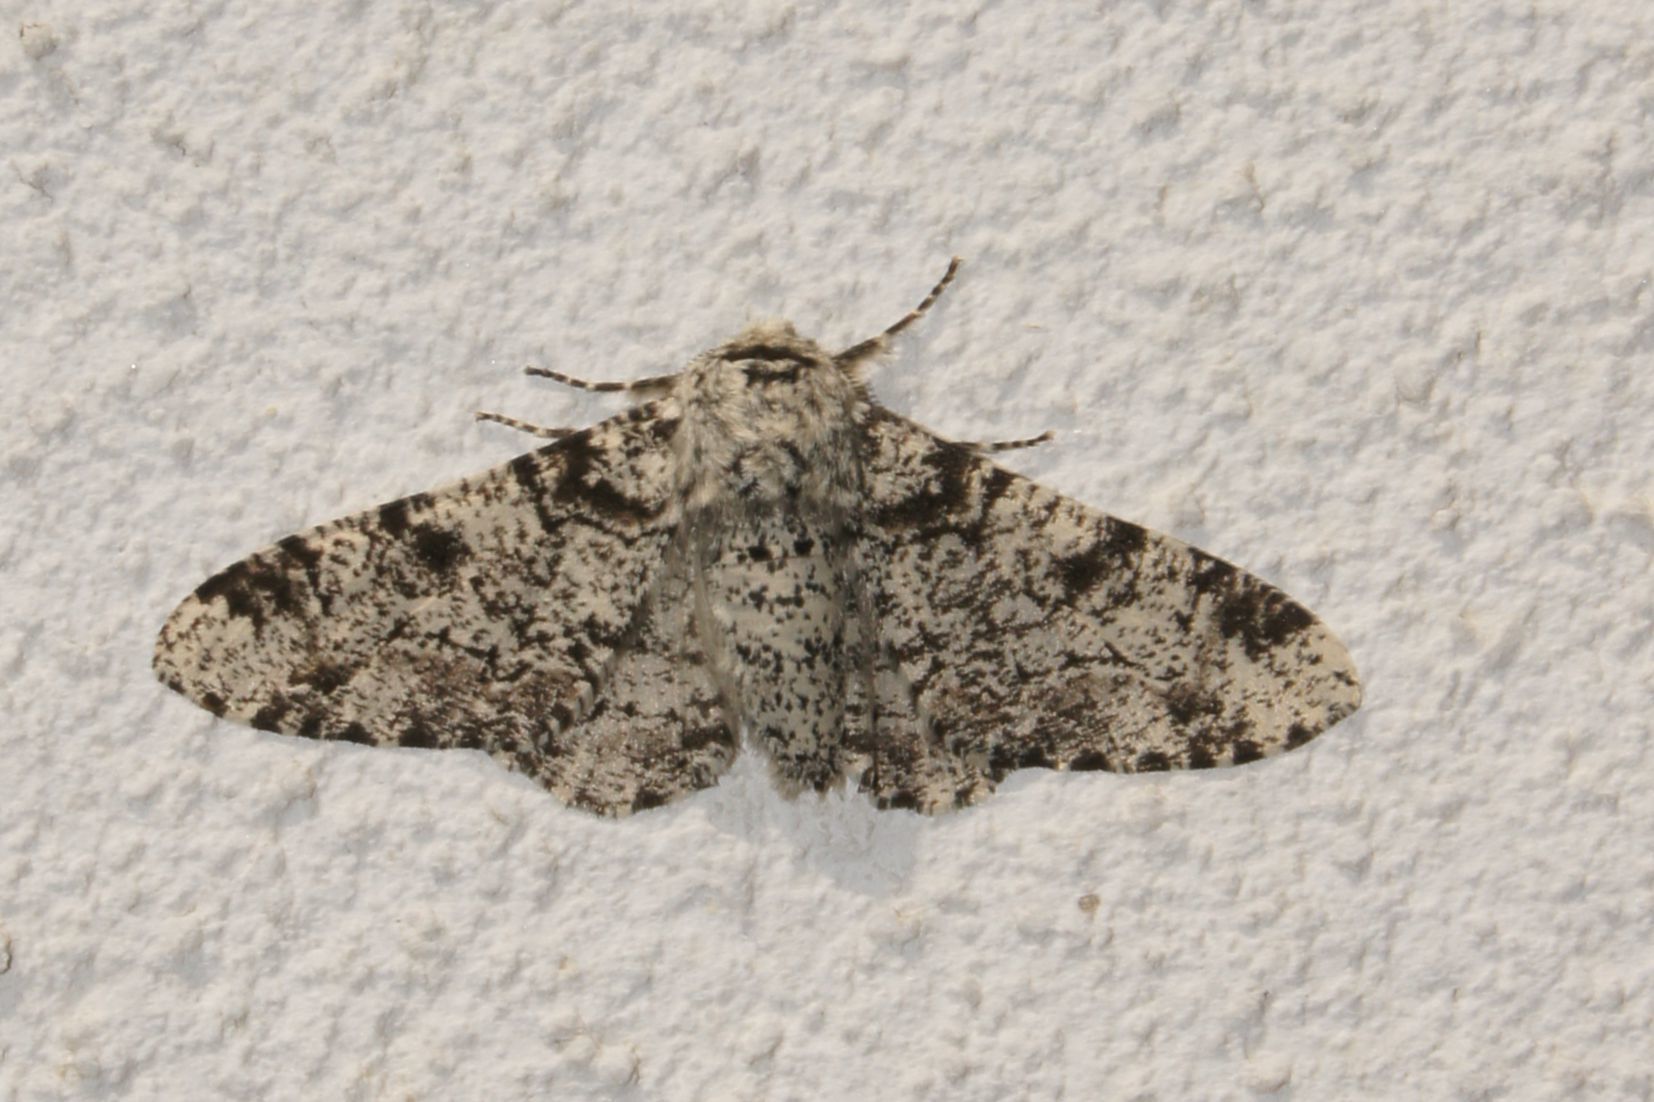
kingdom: Animalia
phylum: Arthropoda
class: Insecta
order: Lepidoptera
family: Geometridae
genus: Biston
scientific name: Biston betularia
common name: Peppered moth
